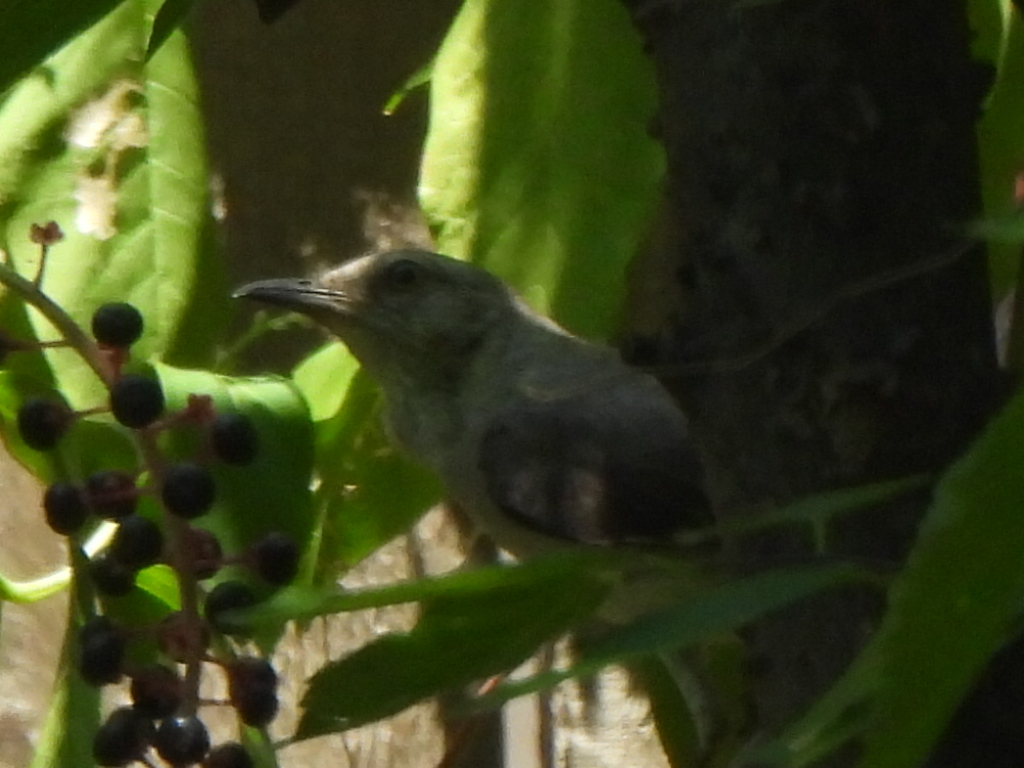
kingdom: Animalia
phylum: Chordata
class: Aves
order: Passeriformes
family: Mimidae
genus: Mimus
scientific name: Mimus polyglottos
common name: Northern mockingbird
